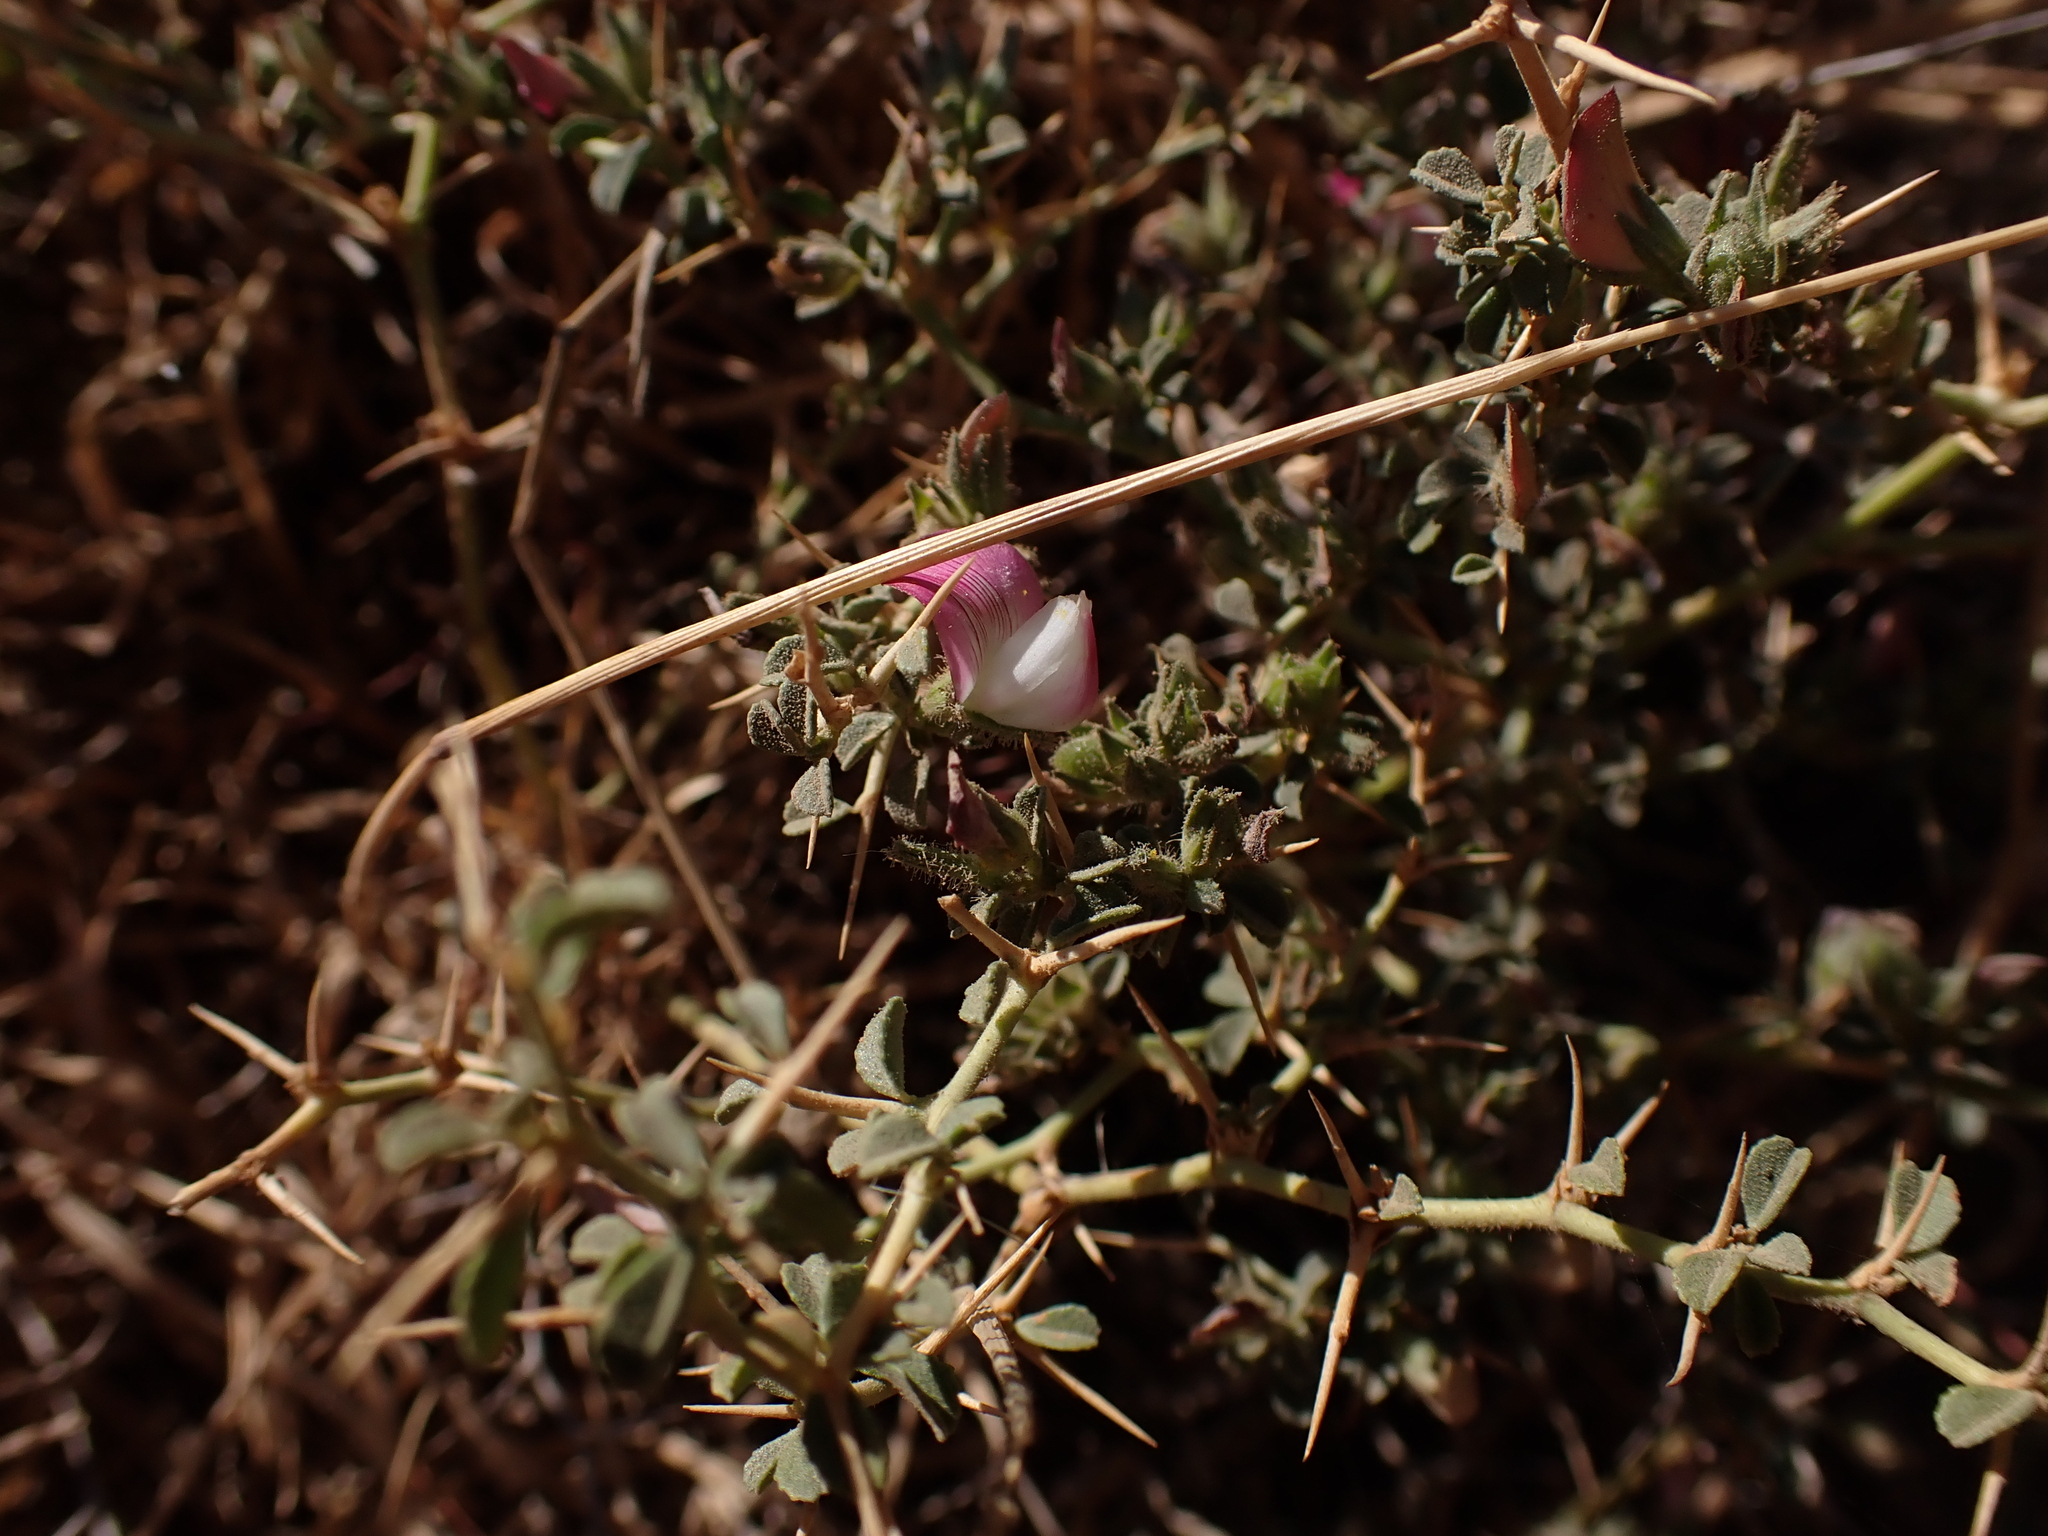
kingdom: Plantae
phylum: Tracheophyta
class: Magnoliopsida
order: Fabales
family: Fabaceae
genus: Ononis
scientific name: Ononis spinosa
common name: Spiny restharrow
